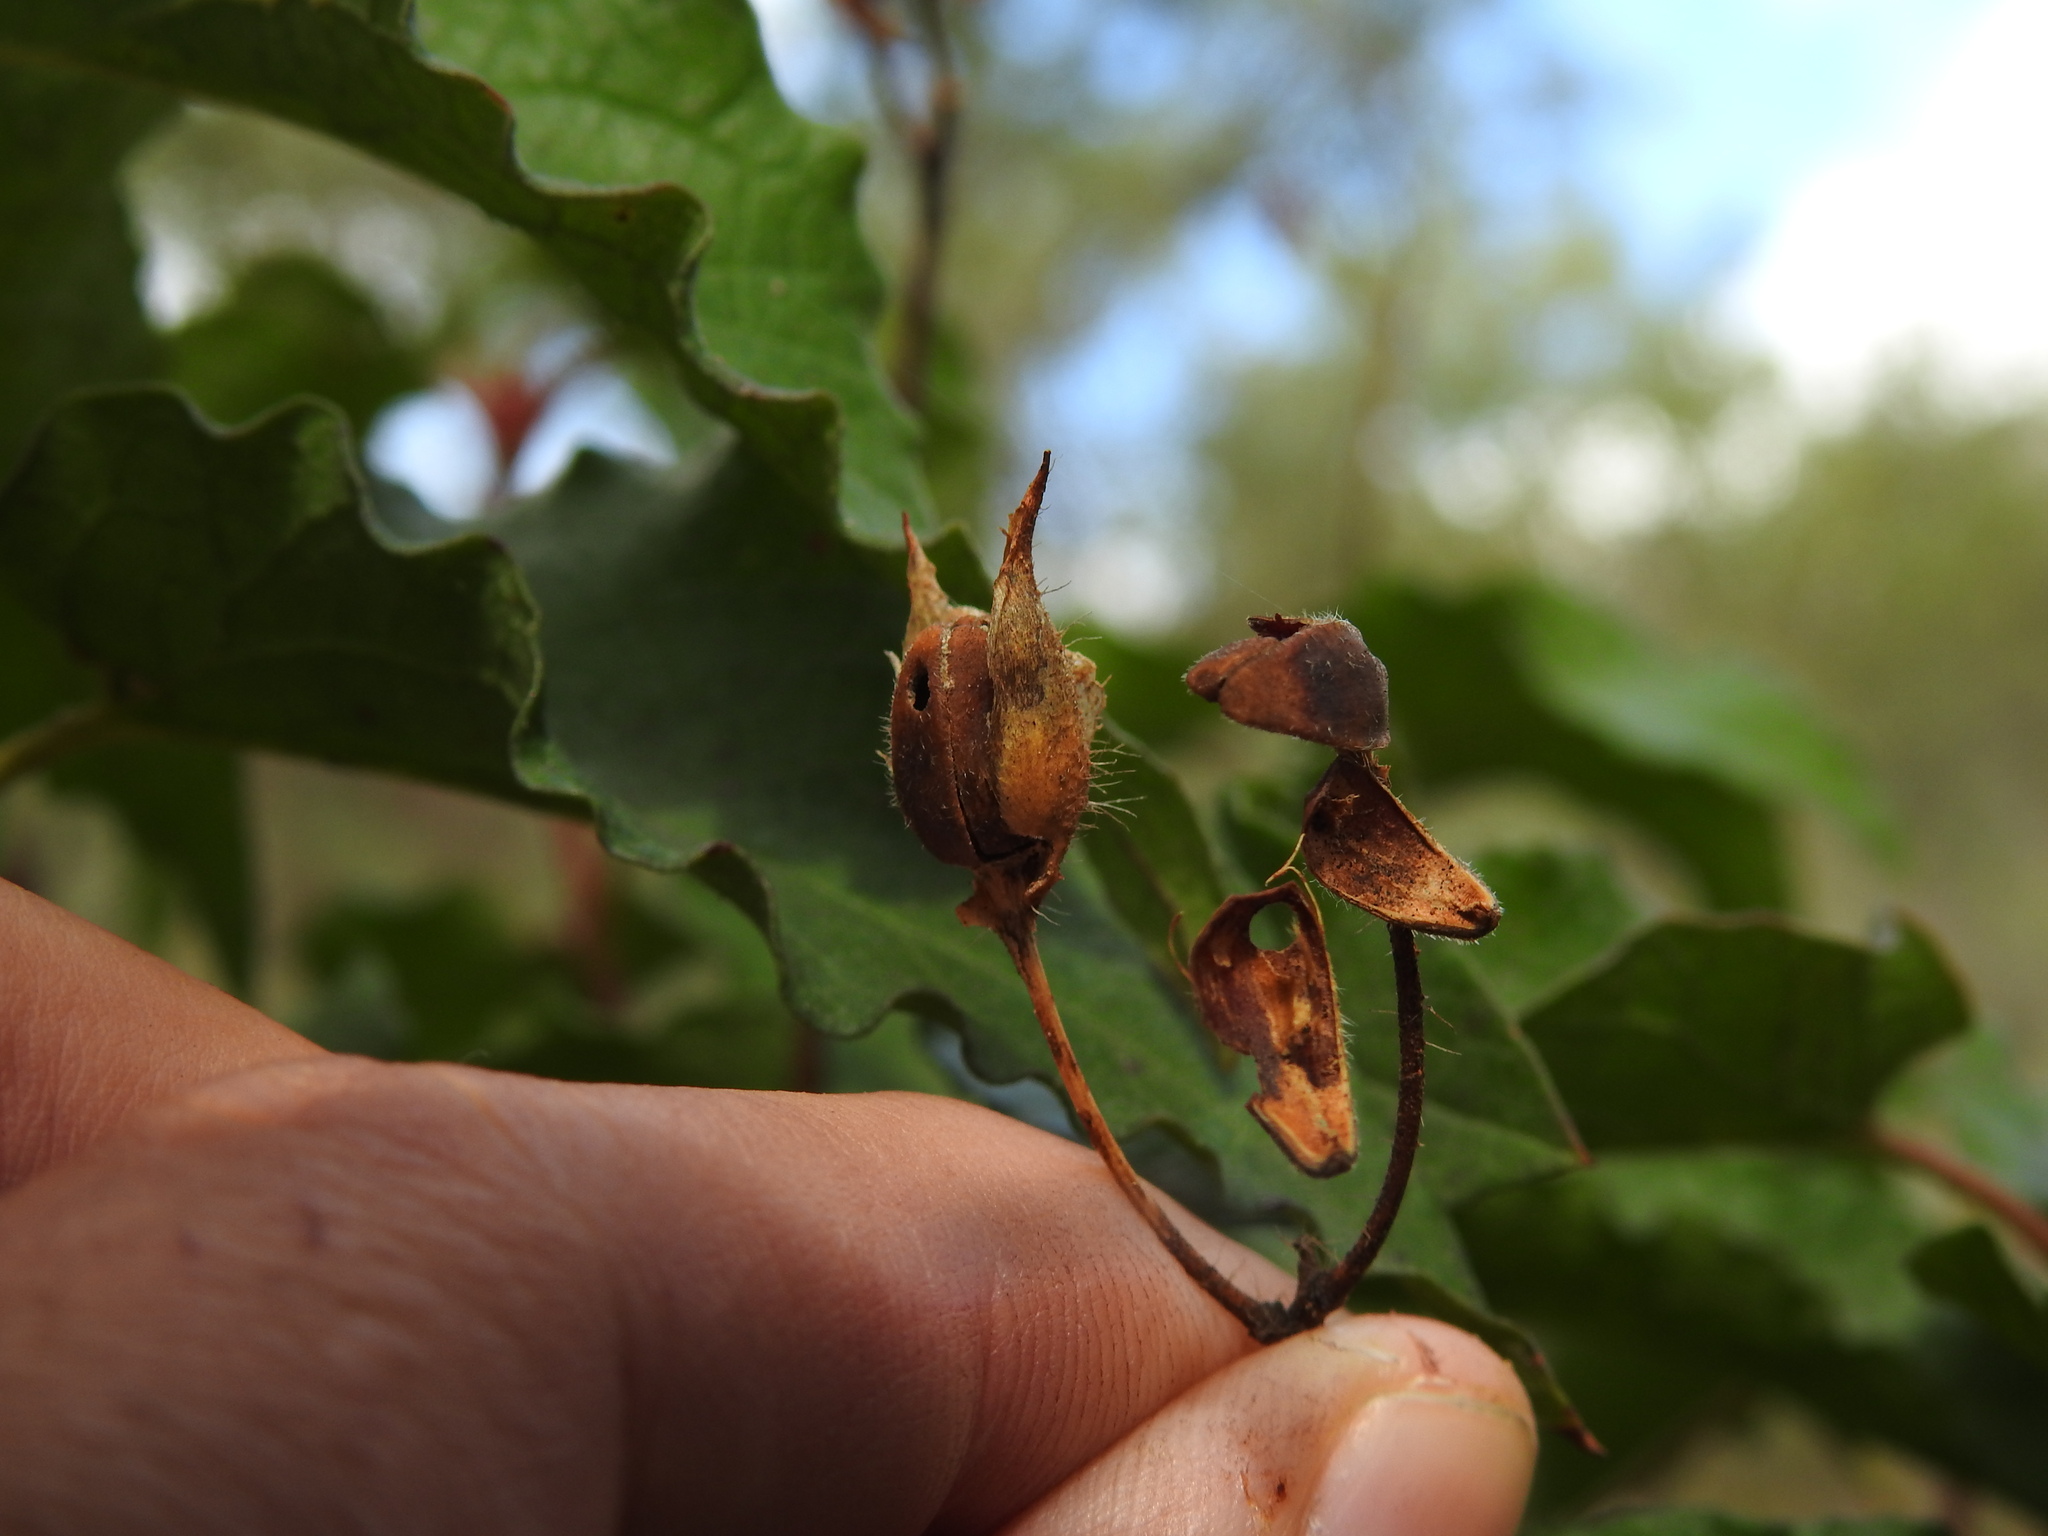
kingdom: Plantae
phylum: Tracheophyta
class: Magnoliopsida
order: Malvales
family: Cistaceae
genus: Cistus
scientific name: Cistus populifolius
